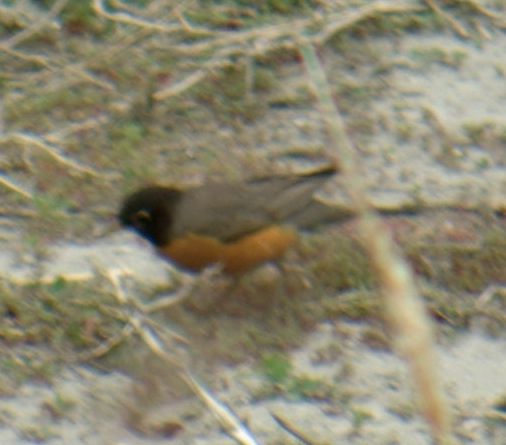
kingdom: Animalia
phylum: Chordata
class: Aves
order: Passeriformes
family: Turdidae
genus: Turdus
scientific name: Turdus migratorius
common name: American robin
